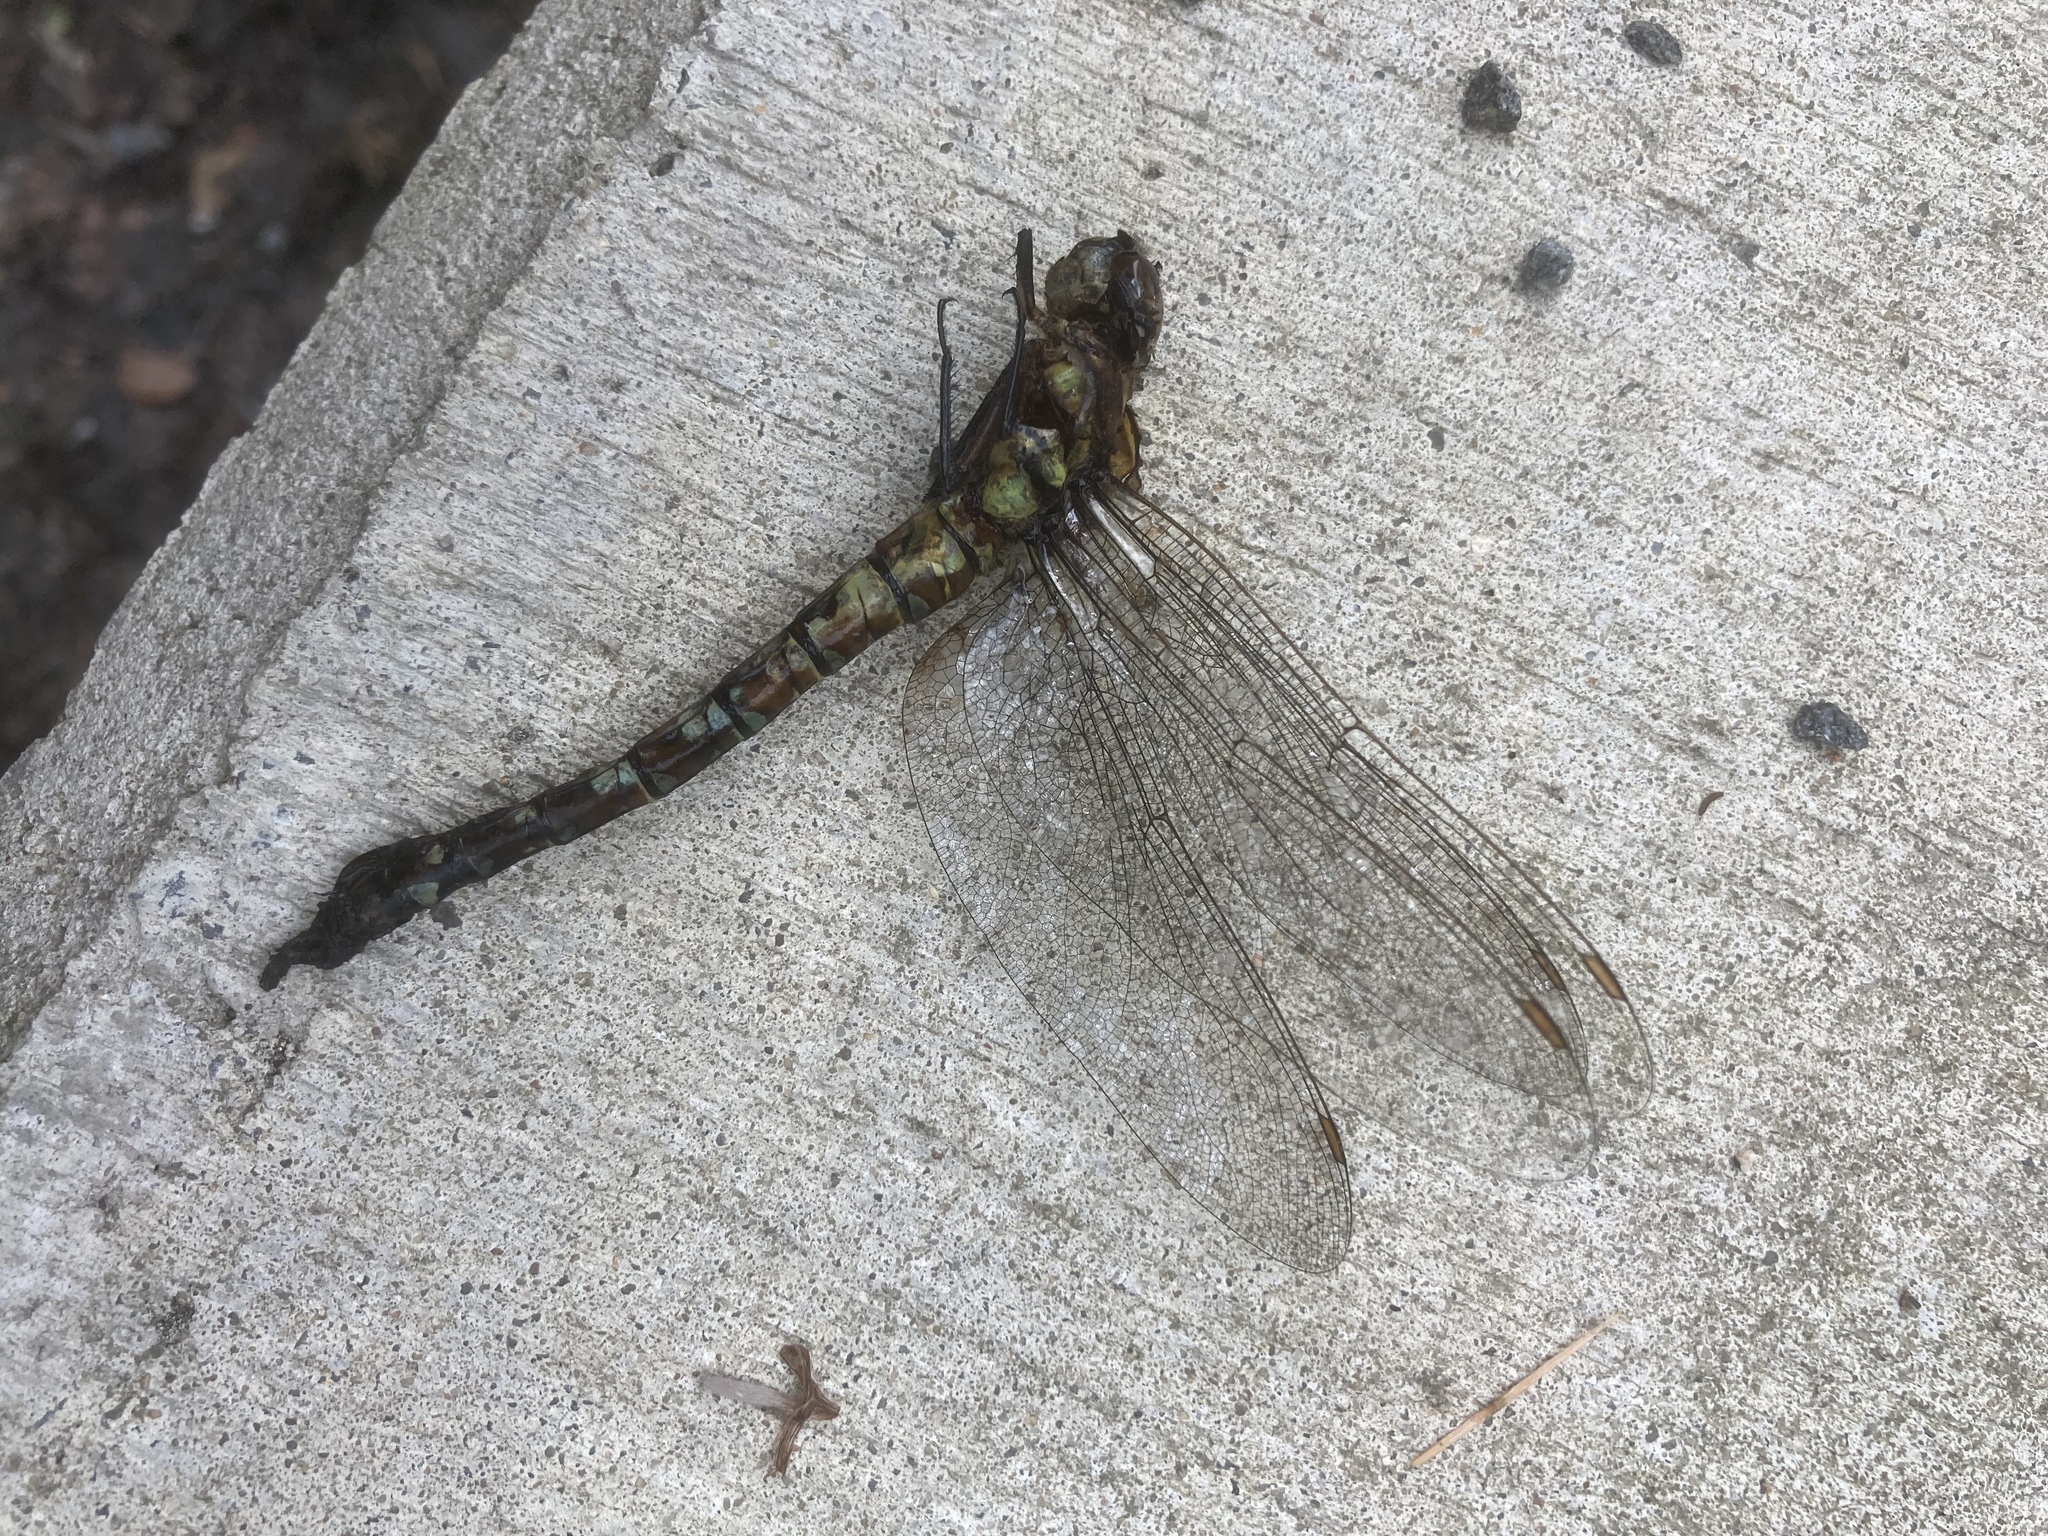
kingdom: Animalia
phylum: Arthropoda
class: Insecta
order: Odonata
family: Aeshnidae
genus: Aeshna
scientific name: Aeshna cyanea
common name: Southern hawker
